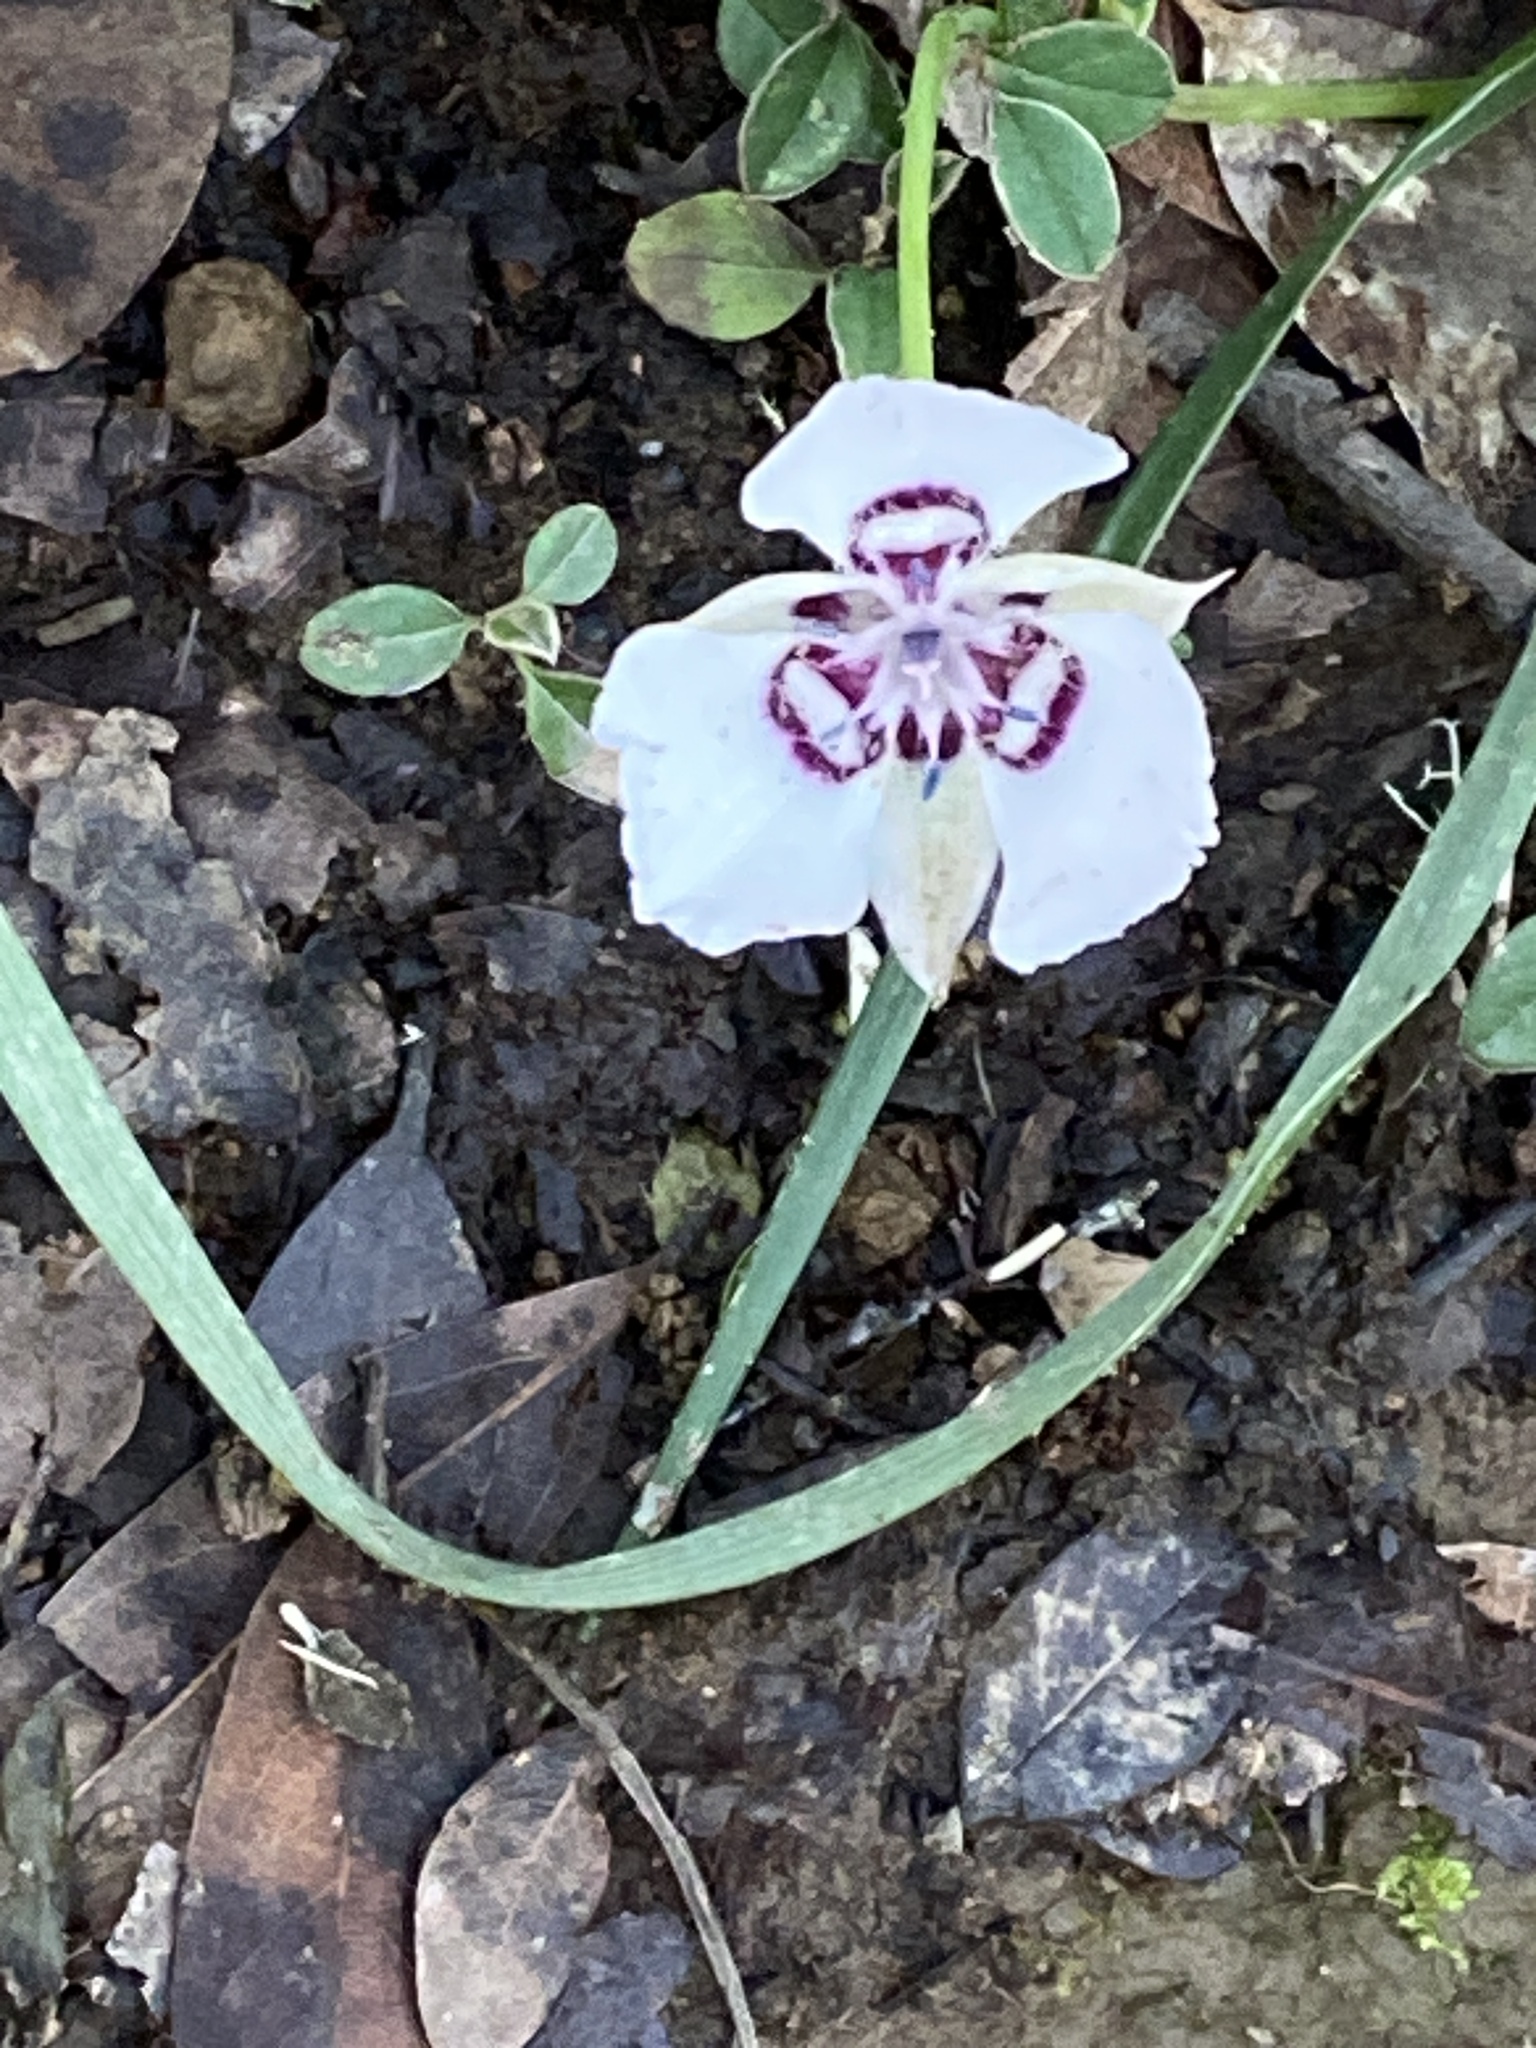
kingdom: Plantae
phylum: Tracheophyta
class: Liliopsida
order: Liliales
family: Liliaceae
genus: Calochortus
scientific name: Calochortus umbellatus
